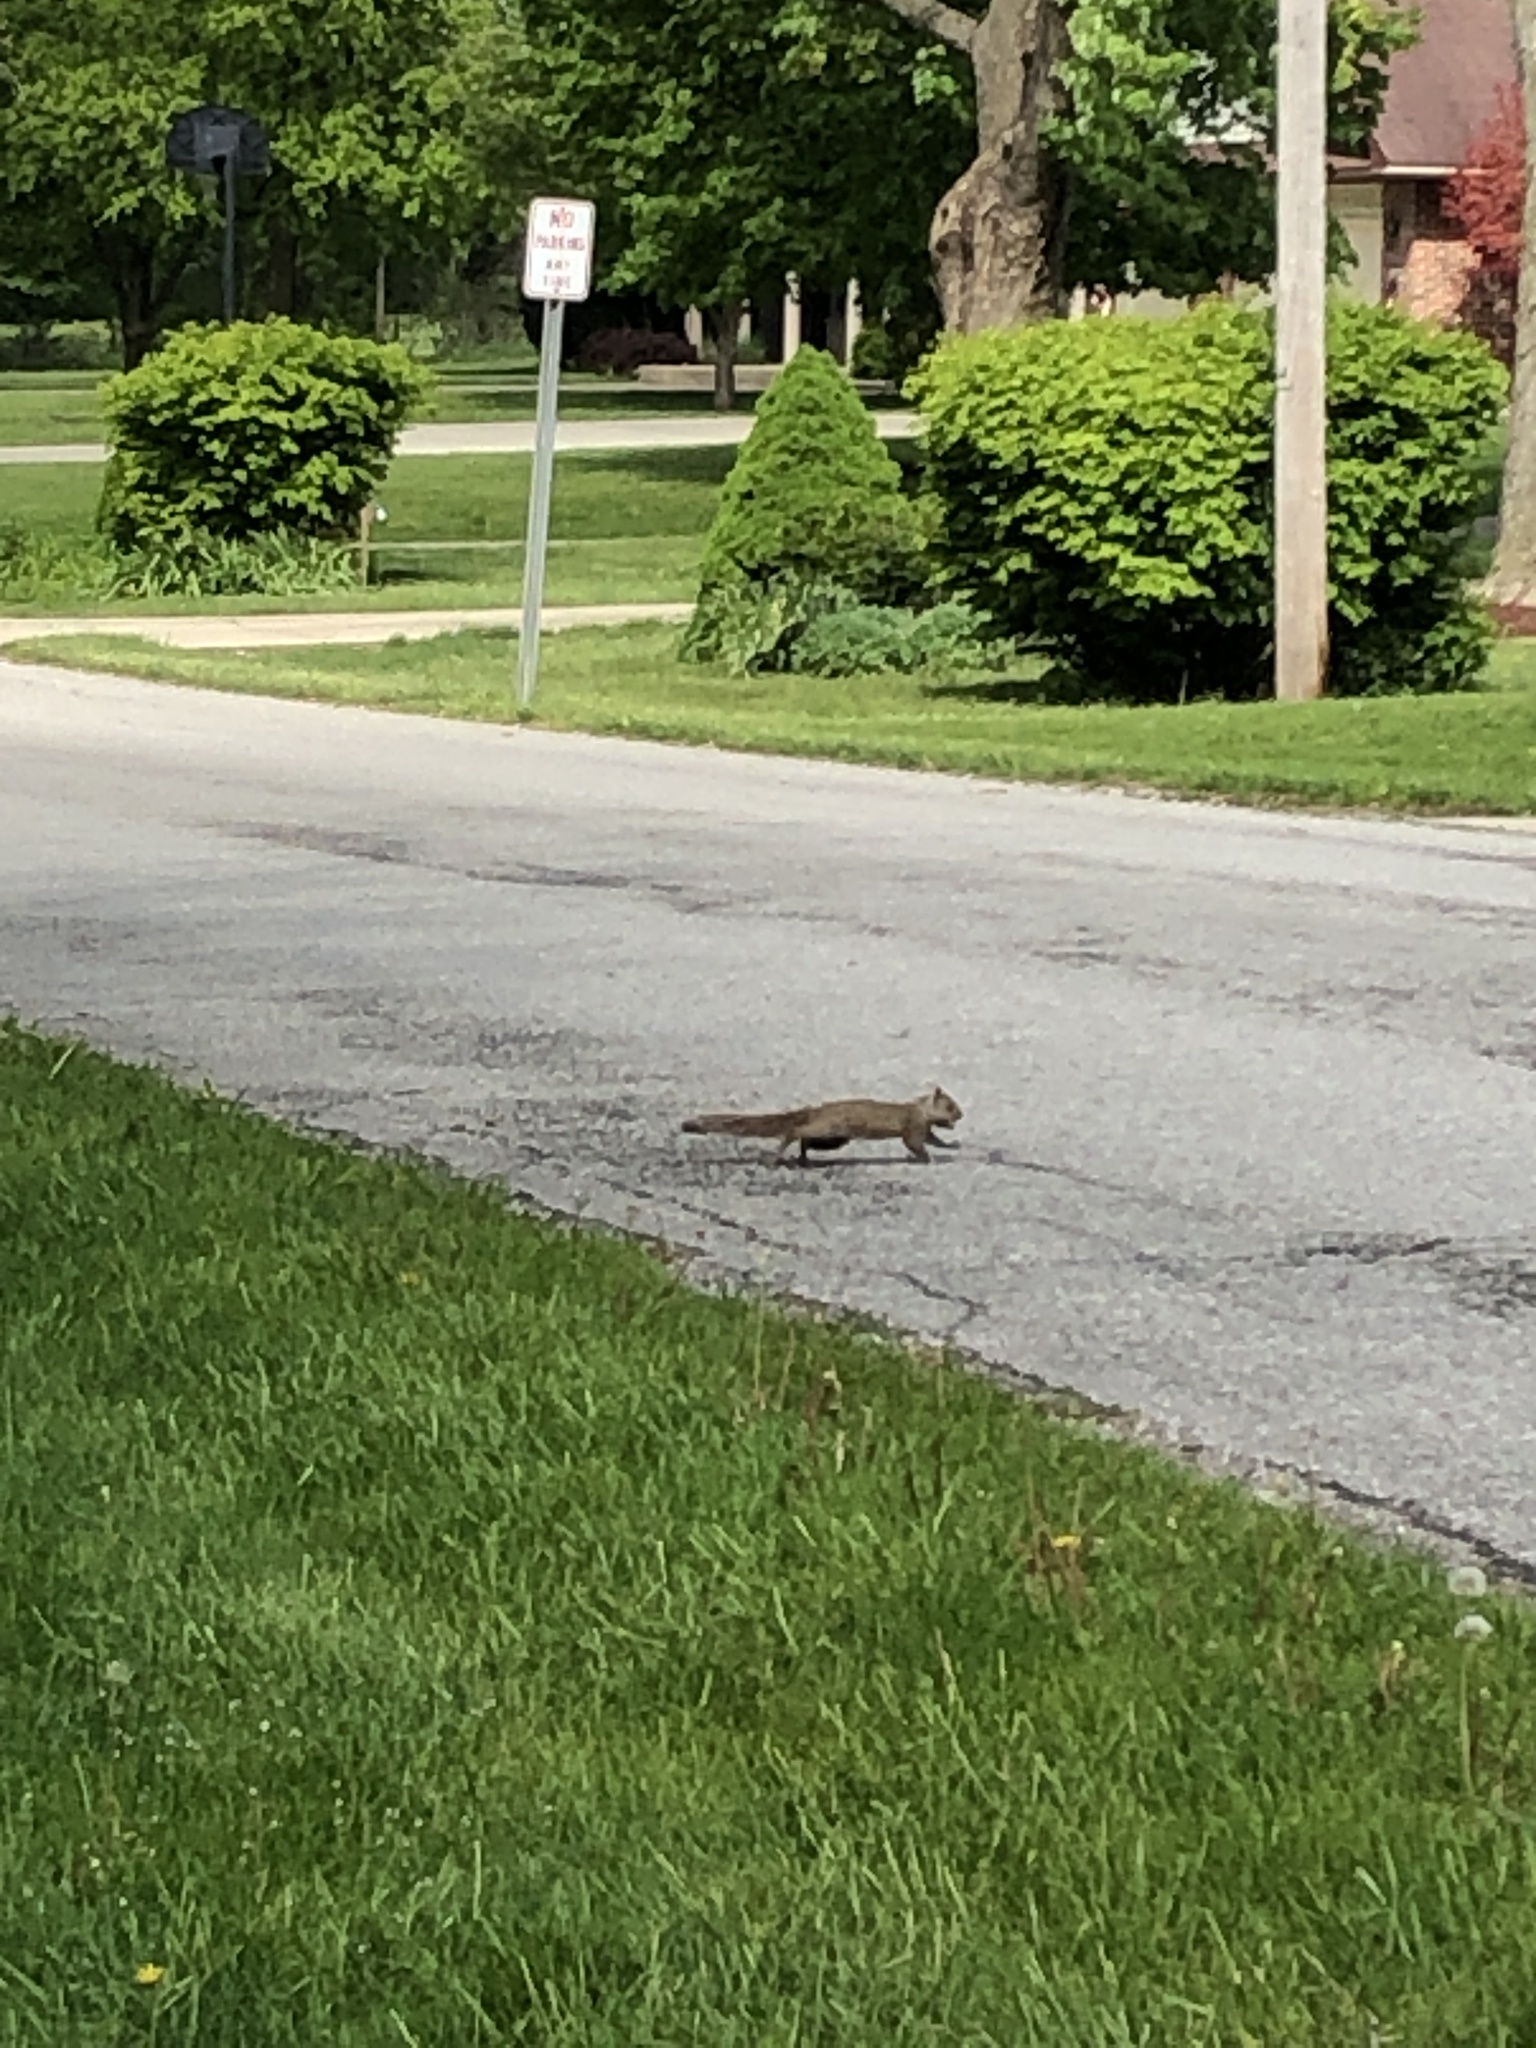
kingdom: Animalia
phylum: Chordata
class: Mammalia
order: Rodentia
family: Sciuridae
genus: Sciurus
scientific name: Sciurus carolinensis
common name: Eastern gray squirrel
